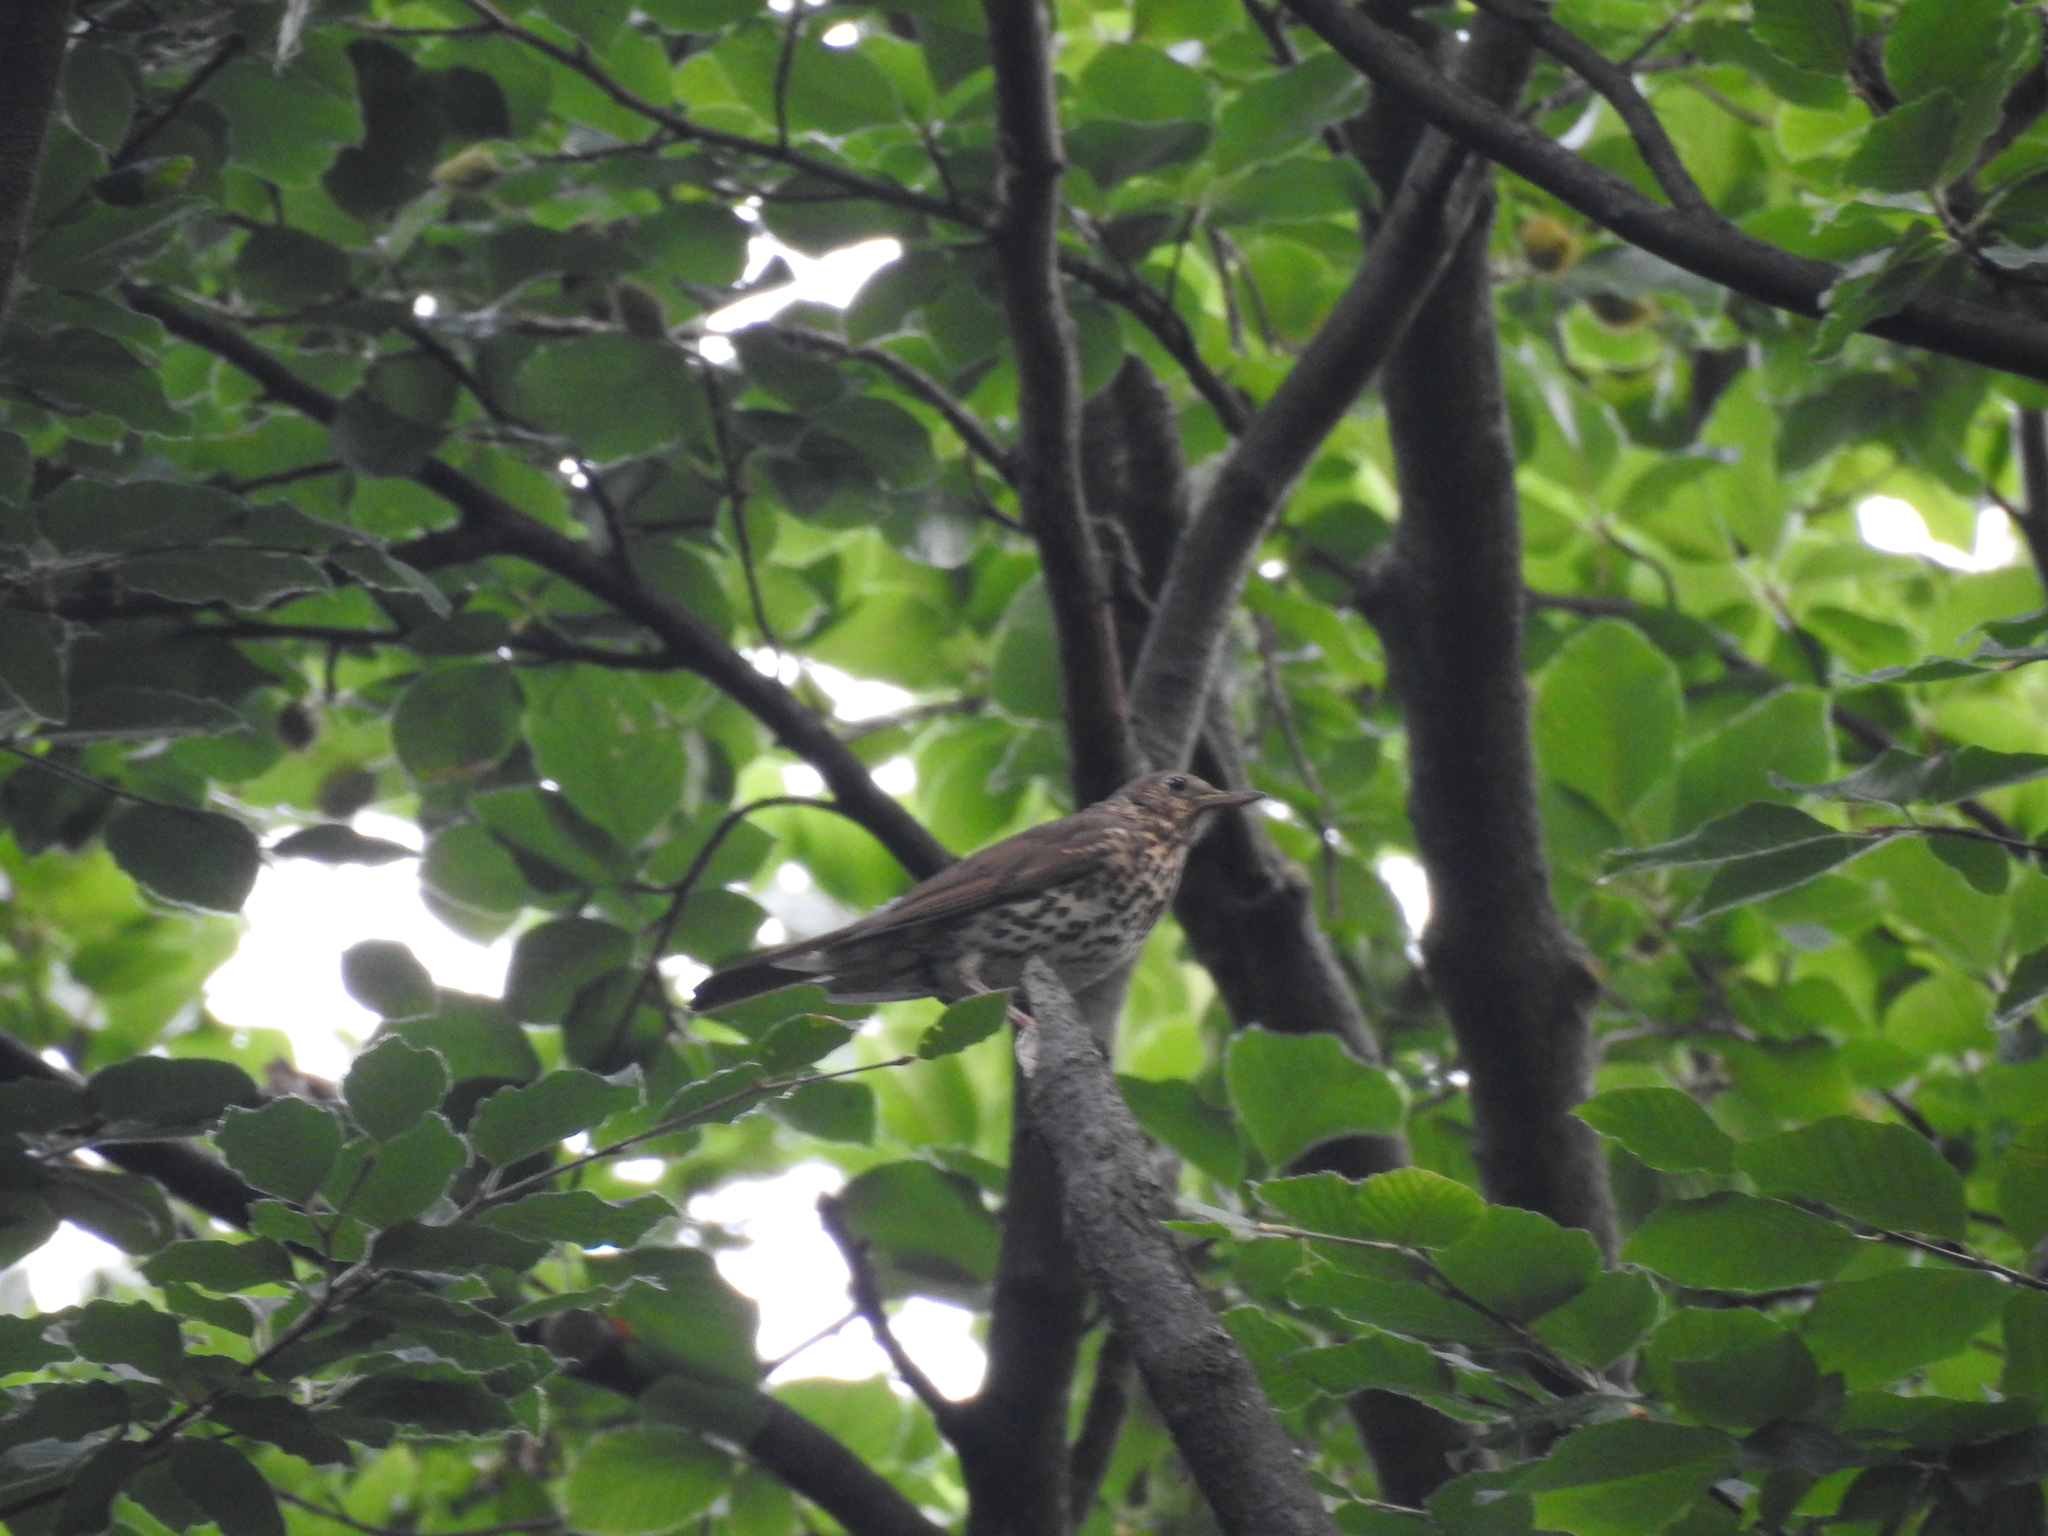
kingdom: Animalia
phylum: Chordata
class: Aves
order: Passeriformes
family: Turdidae
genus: Turdus
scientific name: Turdus philomelos
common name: Song thrush
